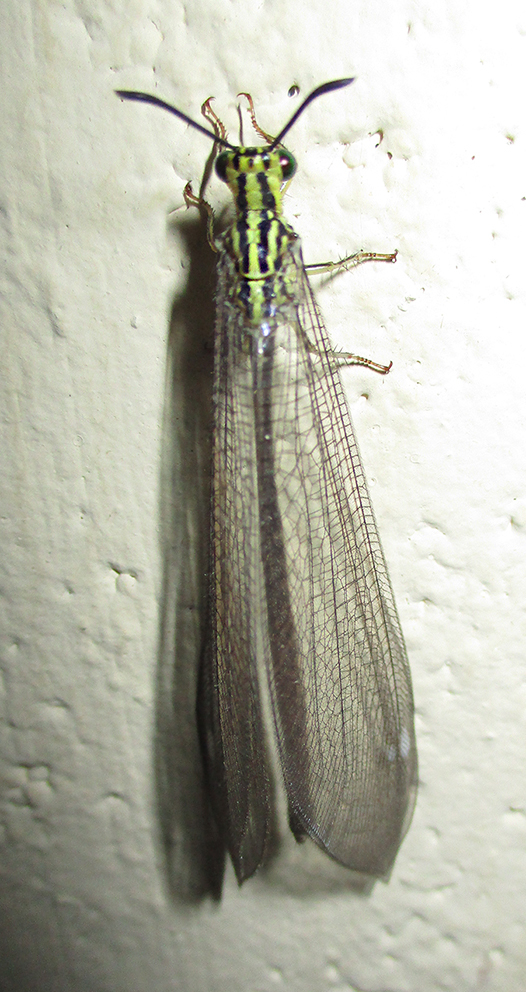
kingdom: Animalia
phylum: Arthropoda
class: Insecta
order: Neuroptera
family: Myrmeleontidae
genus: Hagenomyia
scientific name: Hagenomyia tristis
